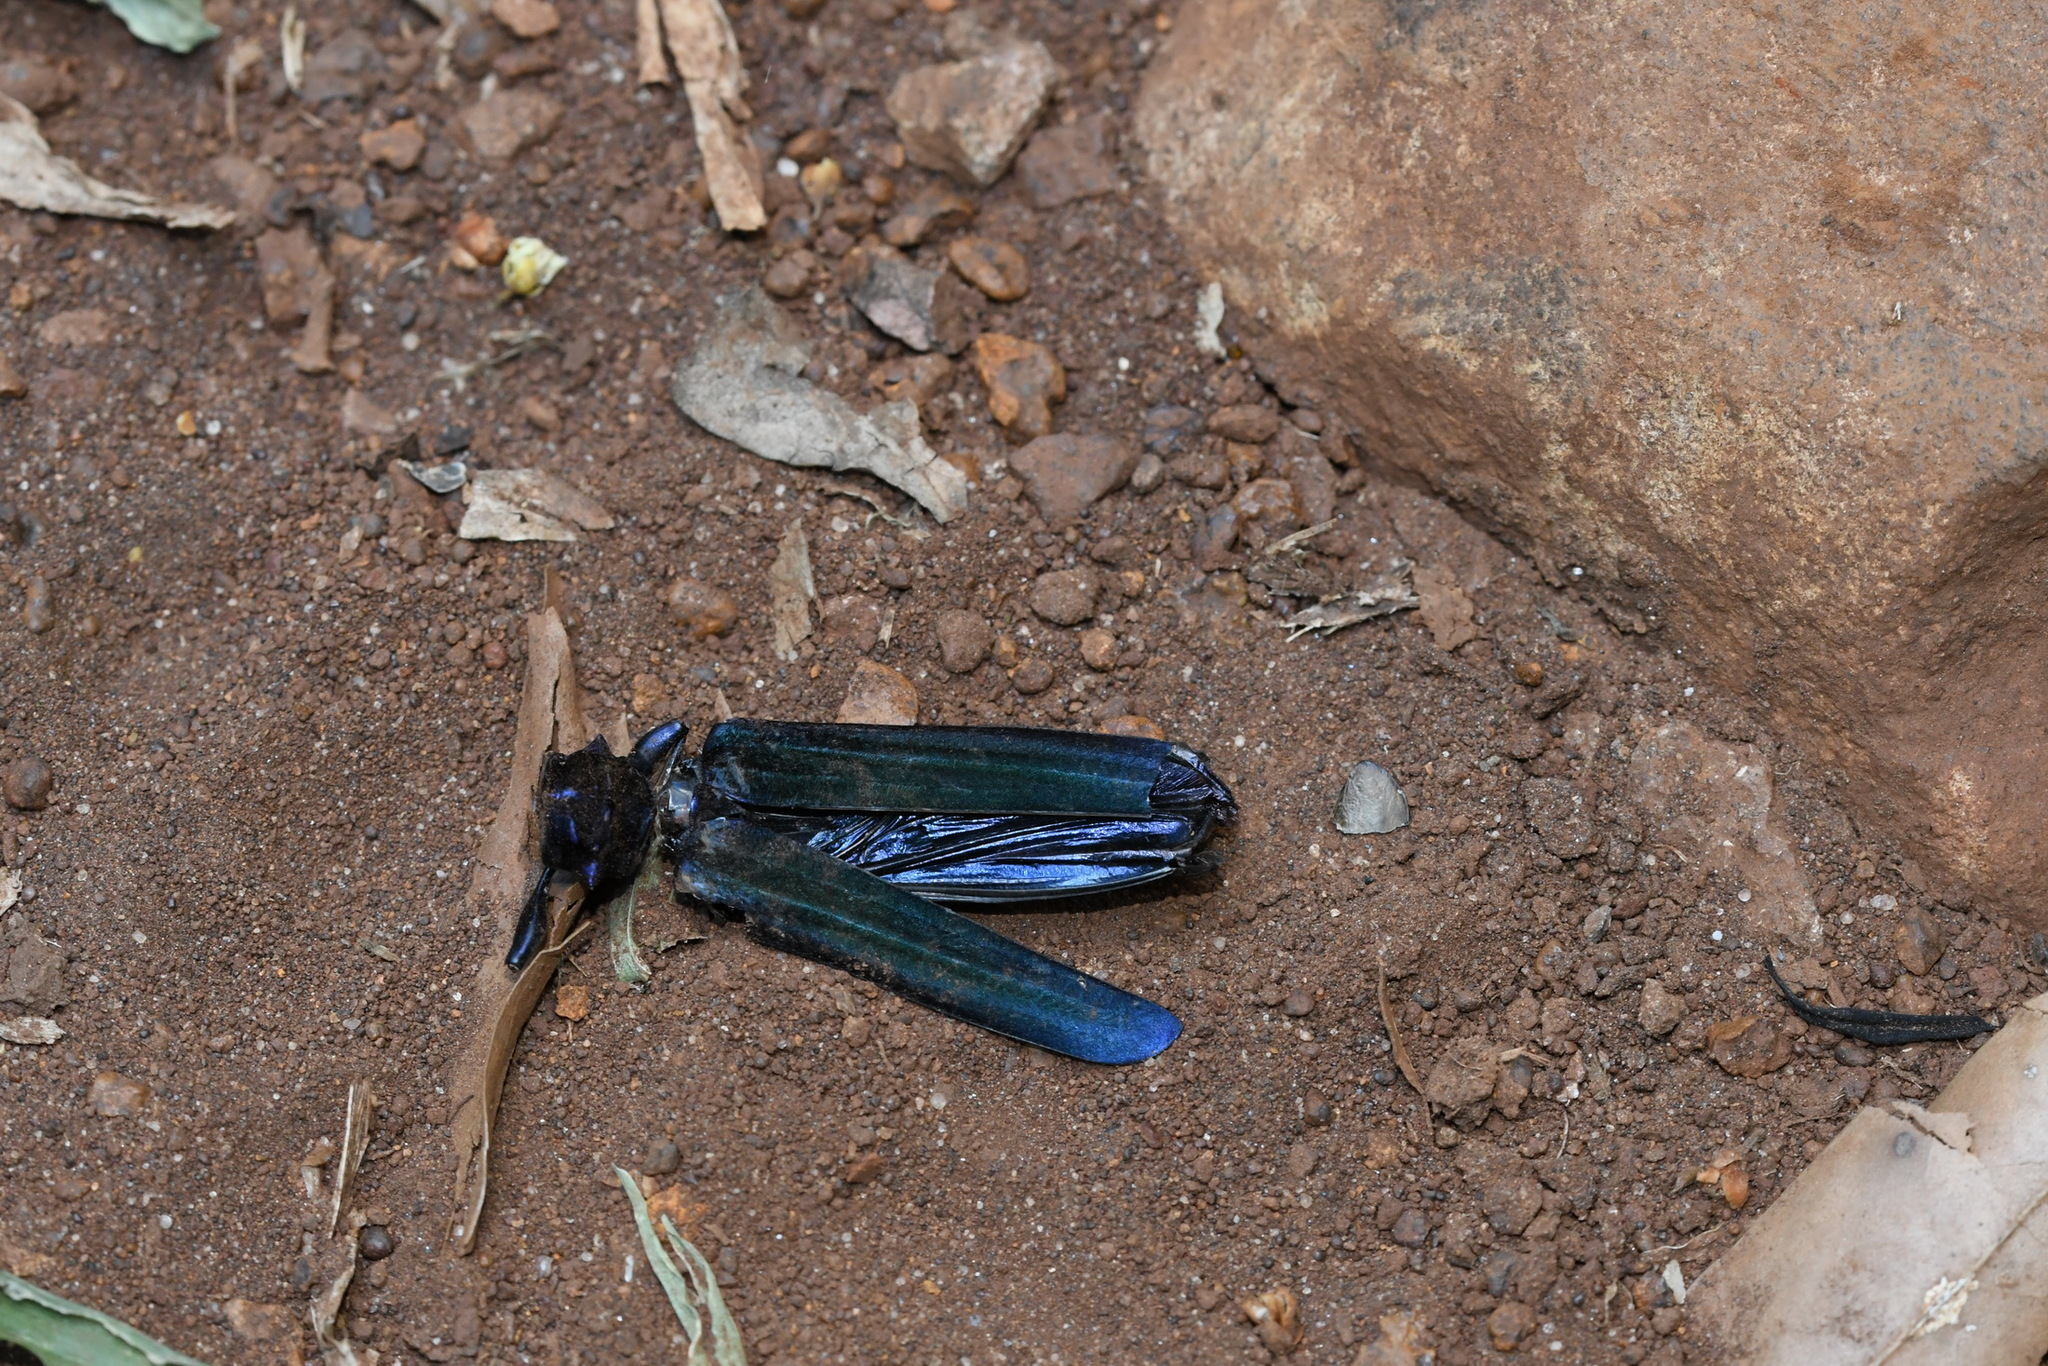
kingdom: Animalia
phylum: Arthropoda
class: Insecta
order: Coleoptera
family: Cerambycidae
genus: Cnemidochroma
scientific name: Cnemidochroma phyllopus
